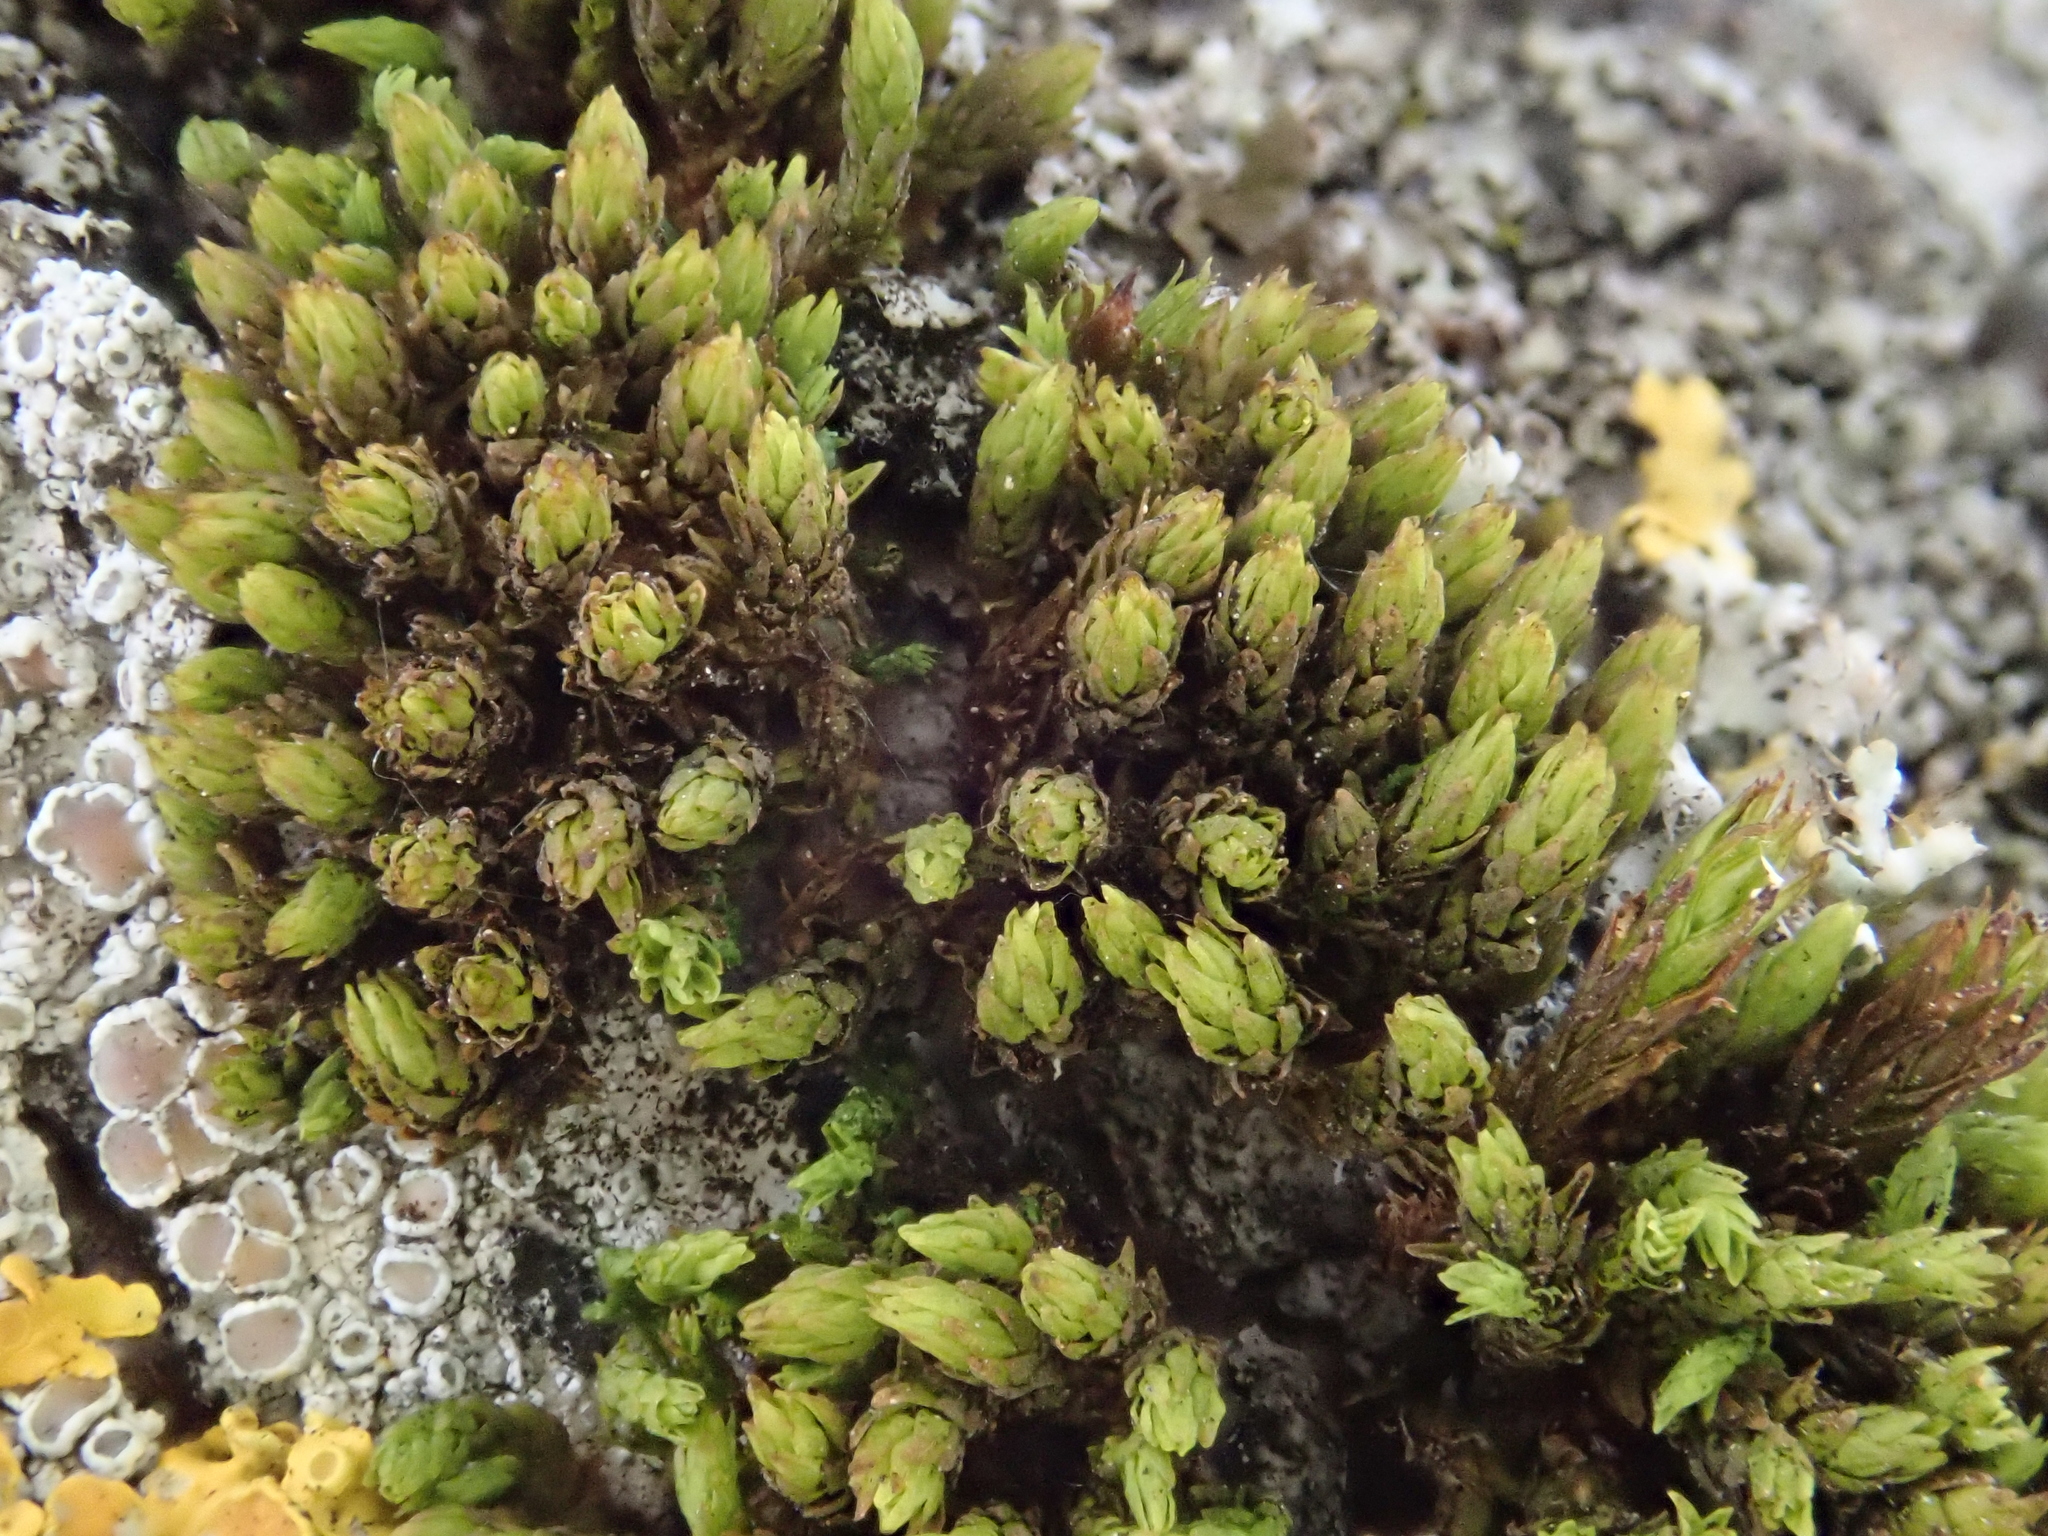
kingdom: Plantae
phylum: Bryophyta
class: Bryopsida
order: Orthotrichales
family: Orthotrichaceae
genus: Nyholmiella
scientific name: Nyholmiella obtusifolia
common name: Blunt-leaved bristle-moss
